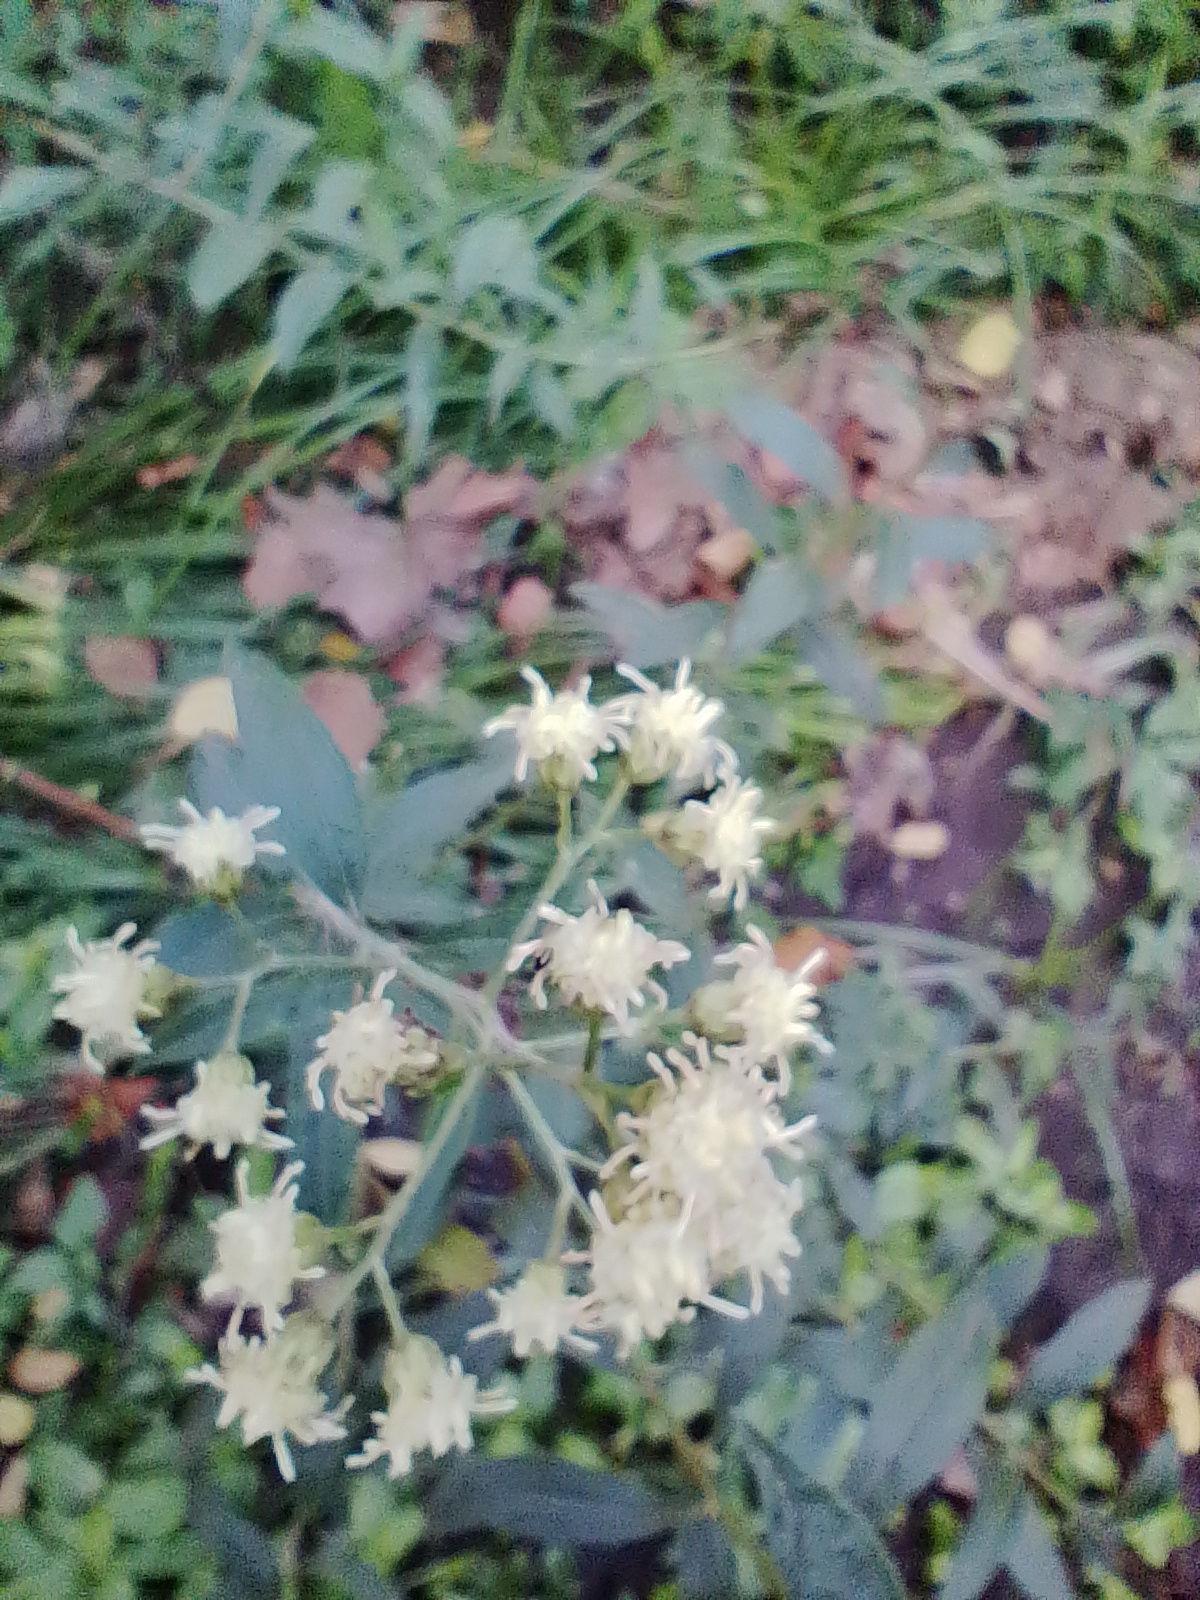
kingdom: Plantae
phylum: Tracheophyta
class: Magnoliopsida
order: Asterales
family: Asteraceae
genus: Baccharis
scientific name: Baccharis punctulata
